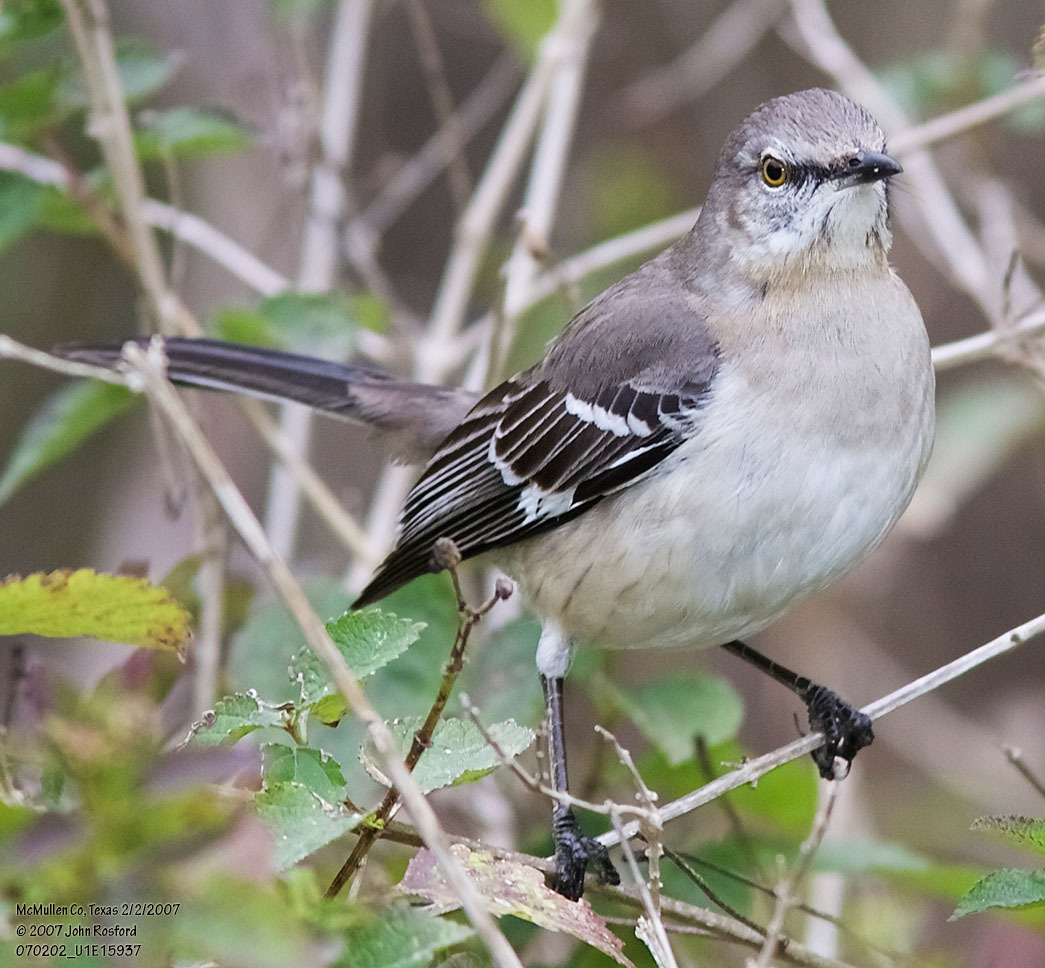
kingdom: Animalia
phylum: Chordata
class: Aves
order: Passeriformes
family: Mimidae
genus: Mimus
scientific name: Mimus polyglottos
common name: Northern mockingbird
